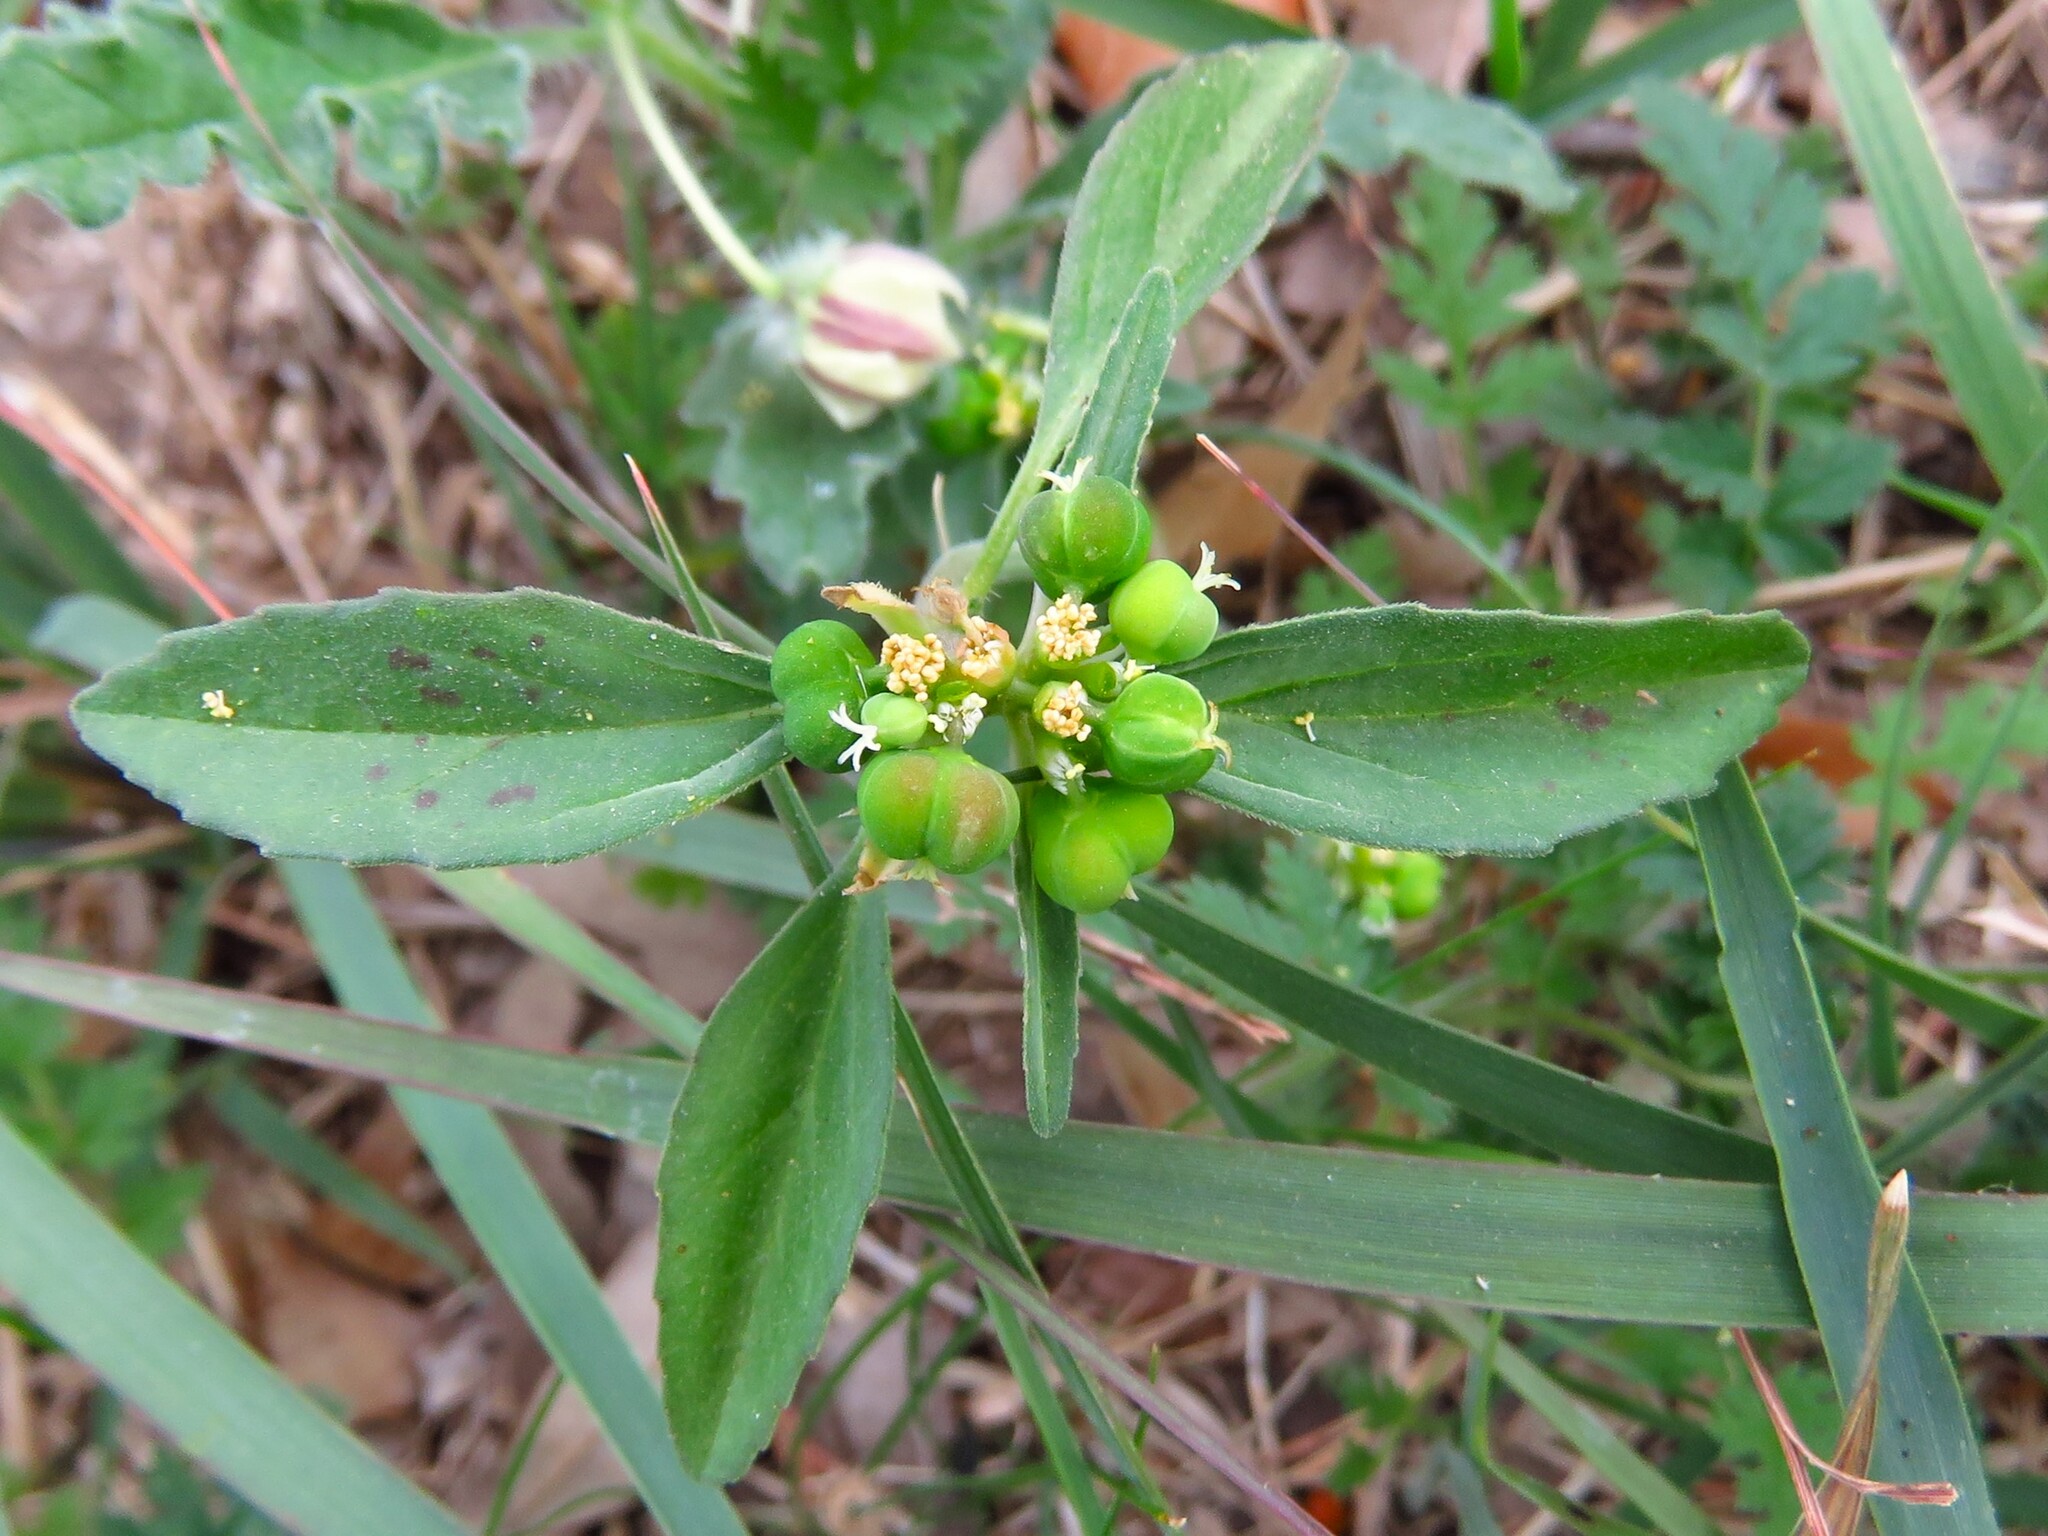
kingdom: Plantae
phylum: Tracheophyta
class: Magnoliopsida
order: Malpighiales
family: Euphorbiaceae
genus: Euphorbia
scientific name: Euphorbia dentata
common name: Dentate spurge
